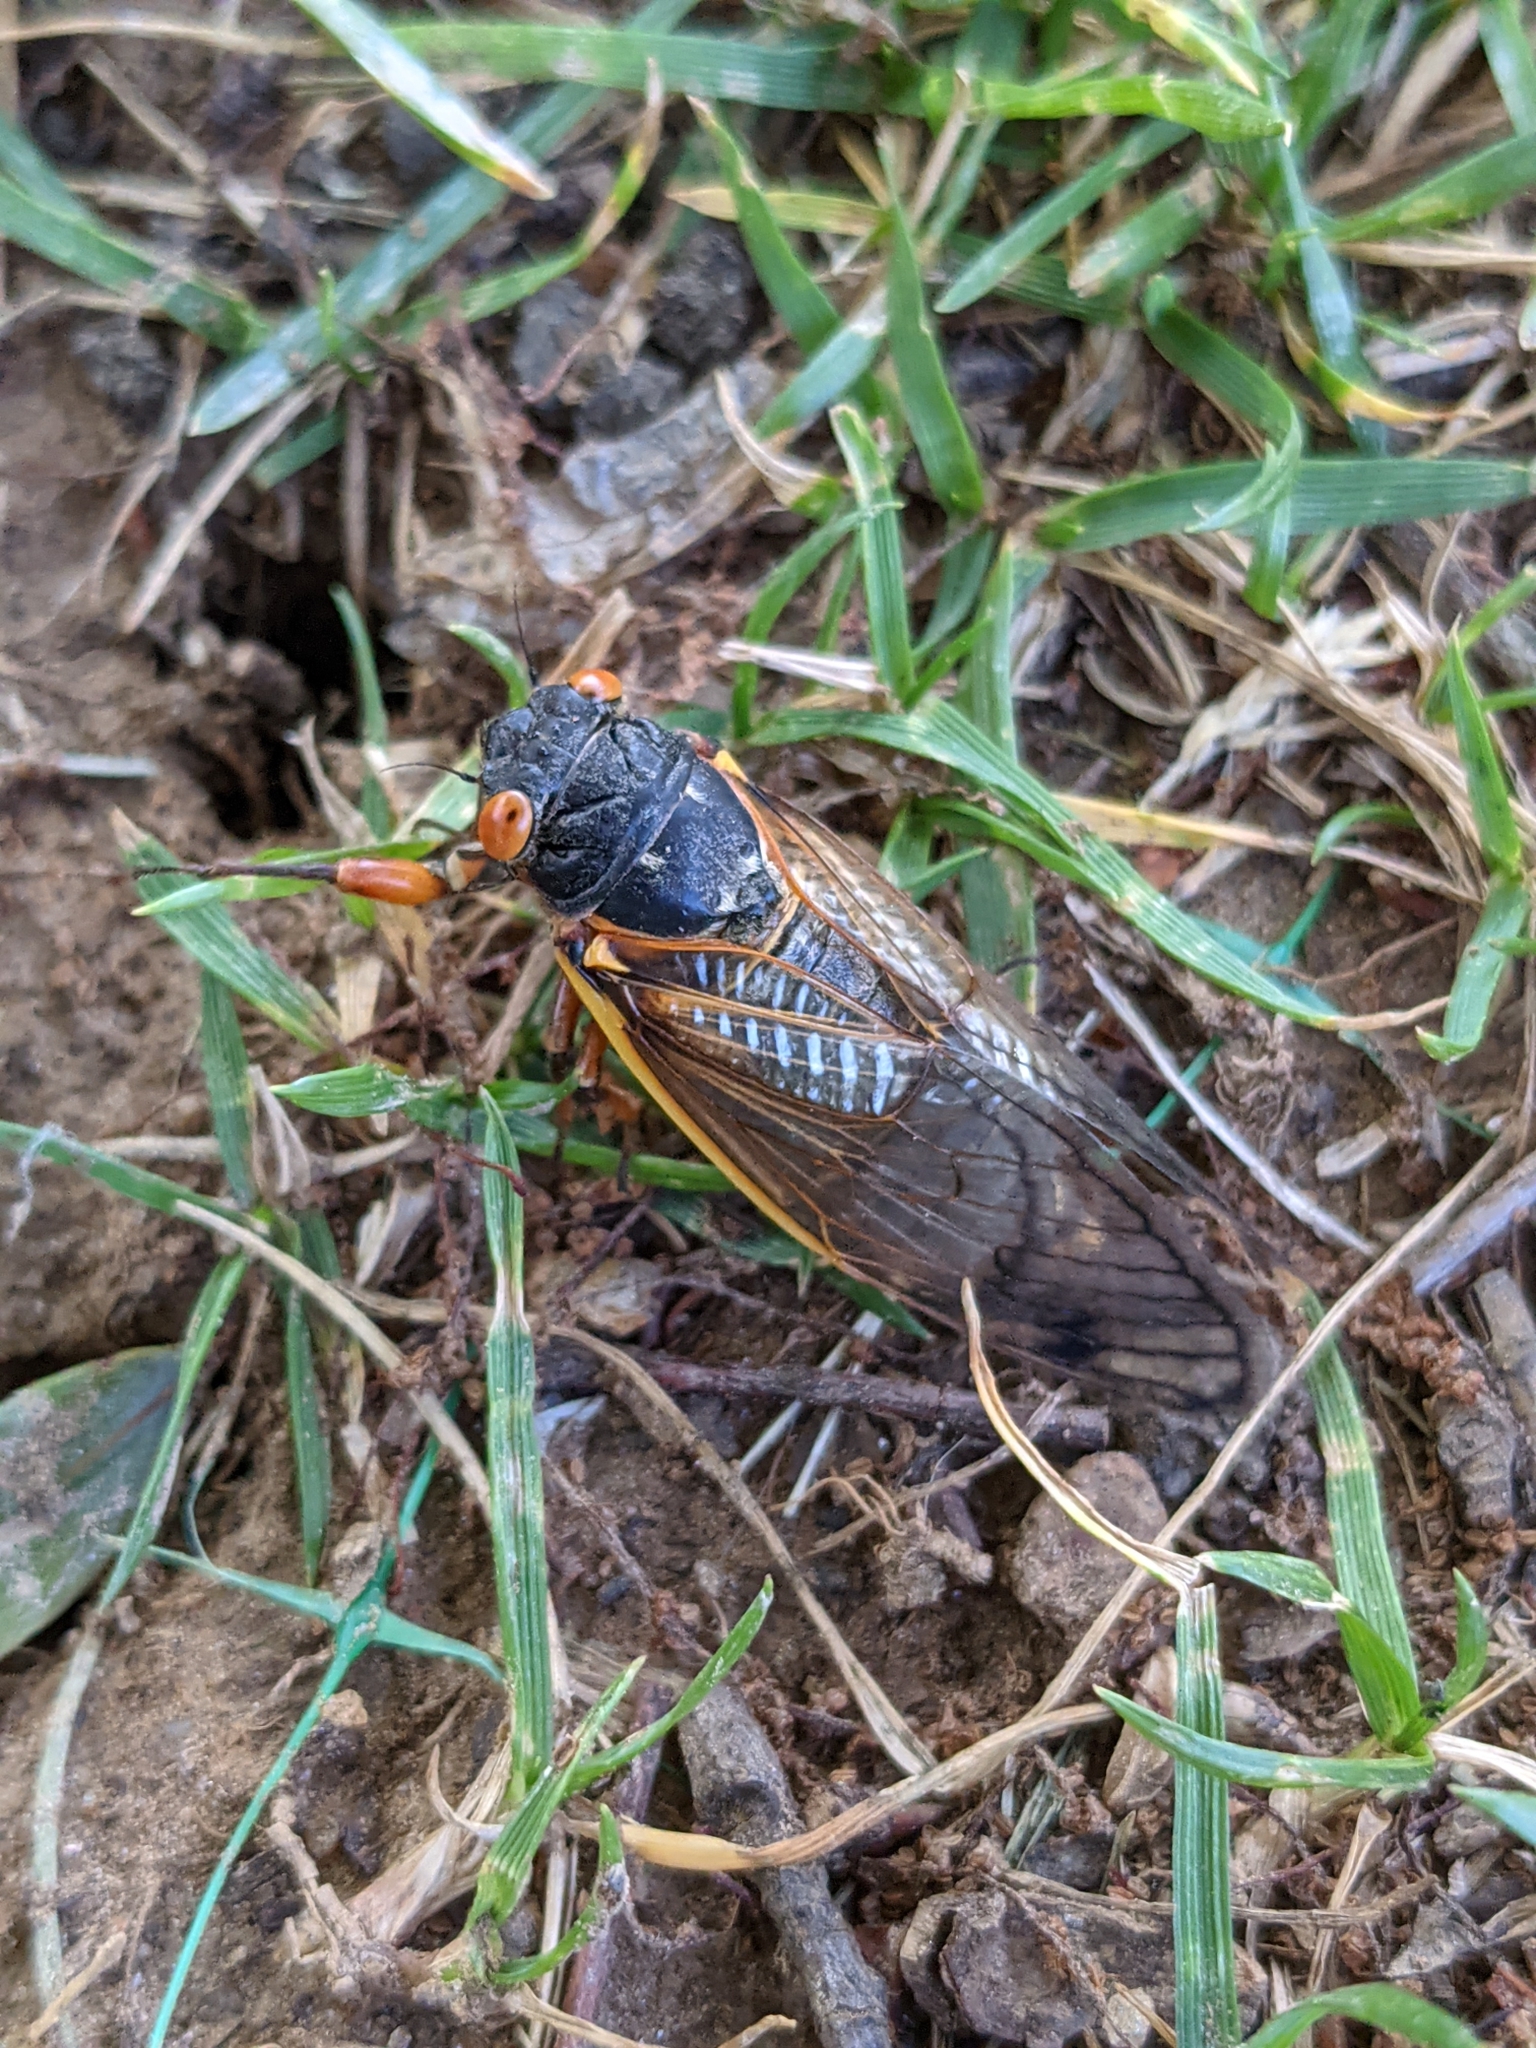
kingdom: Animalia
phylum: Arthropoda
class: Insecta
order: Hemiptera
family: Cicadidae
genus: Magicicada
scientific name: Magicicada septendecim
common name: Periodical cicada
